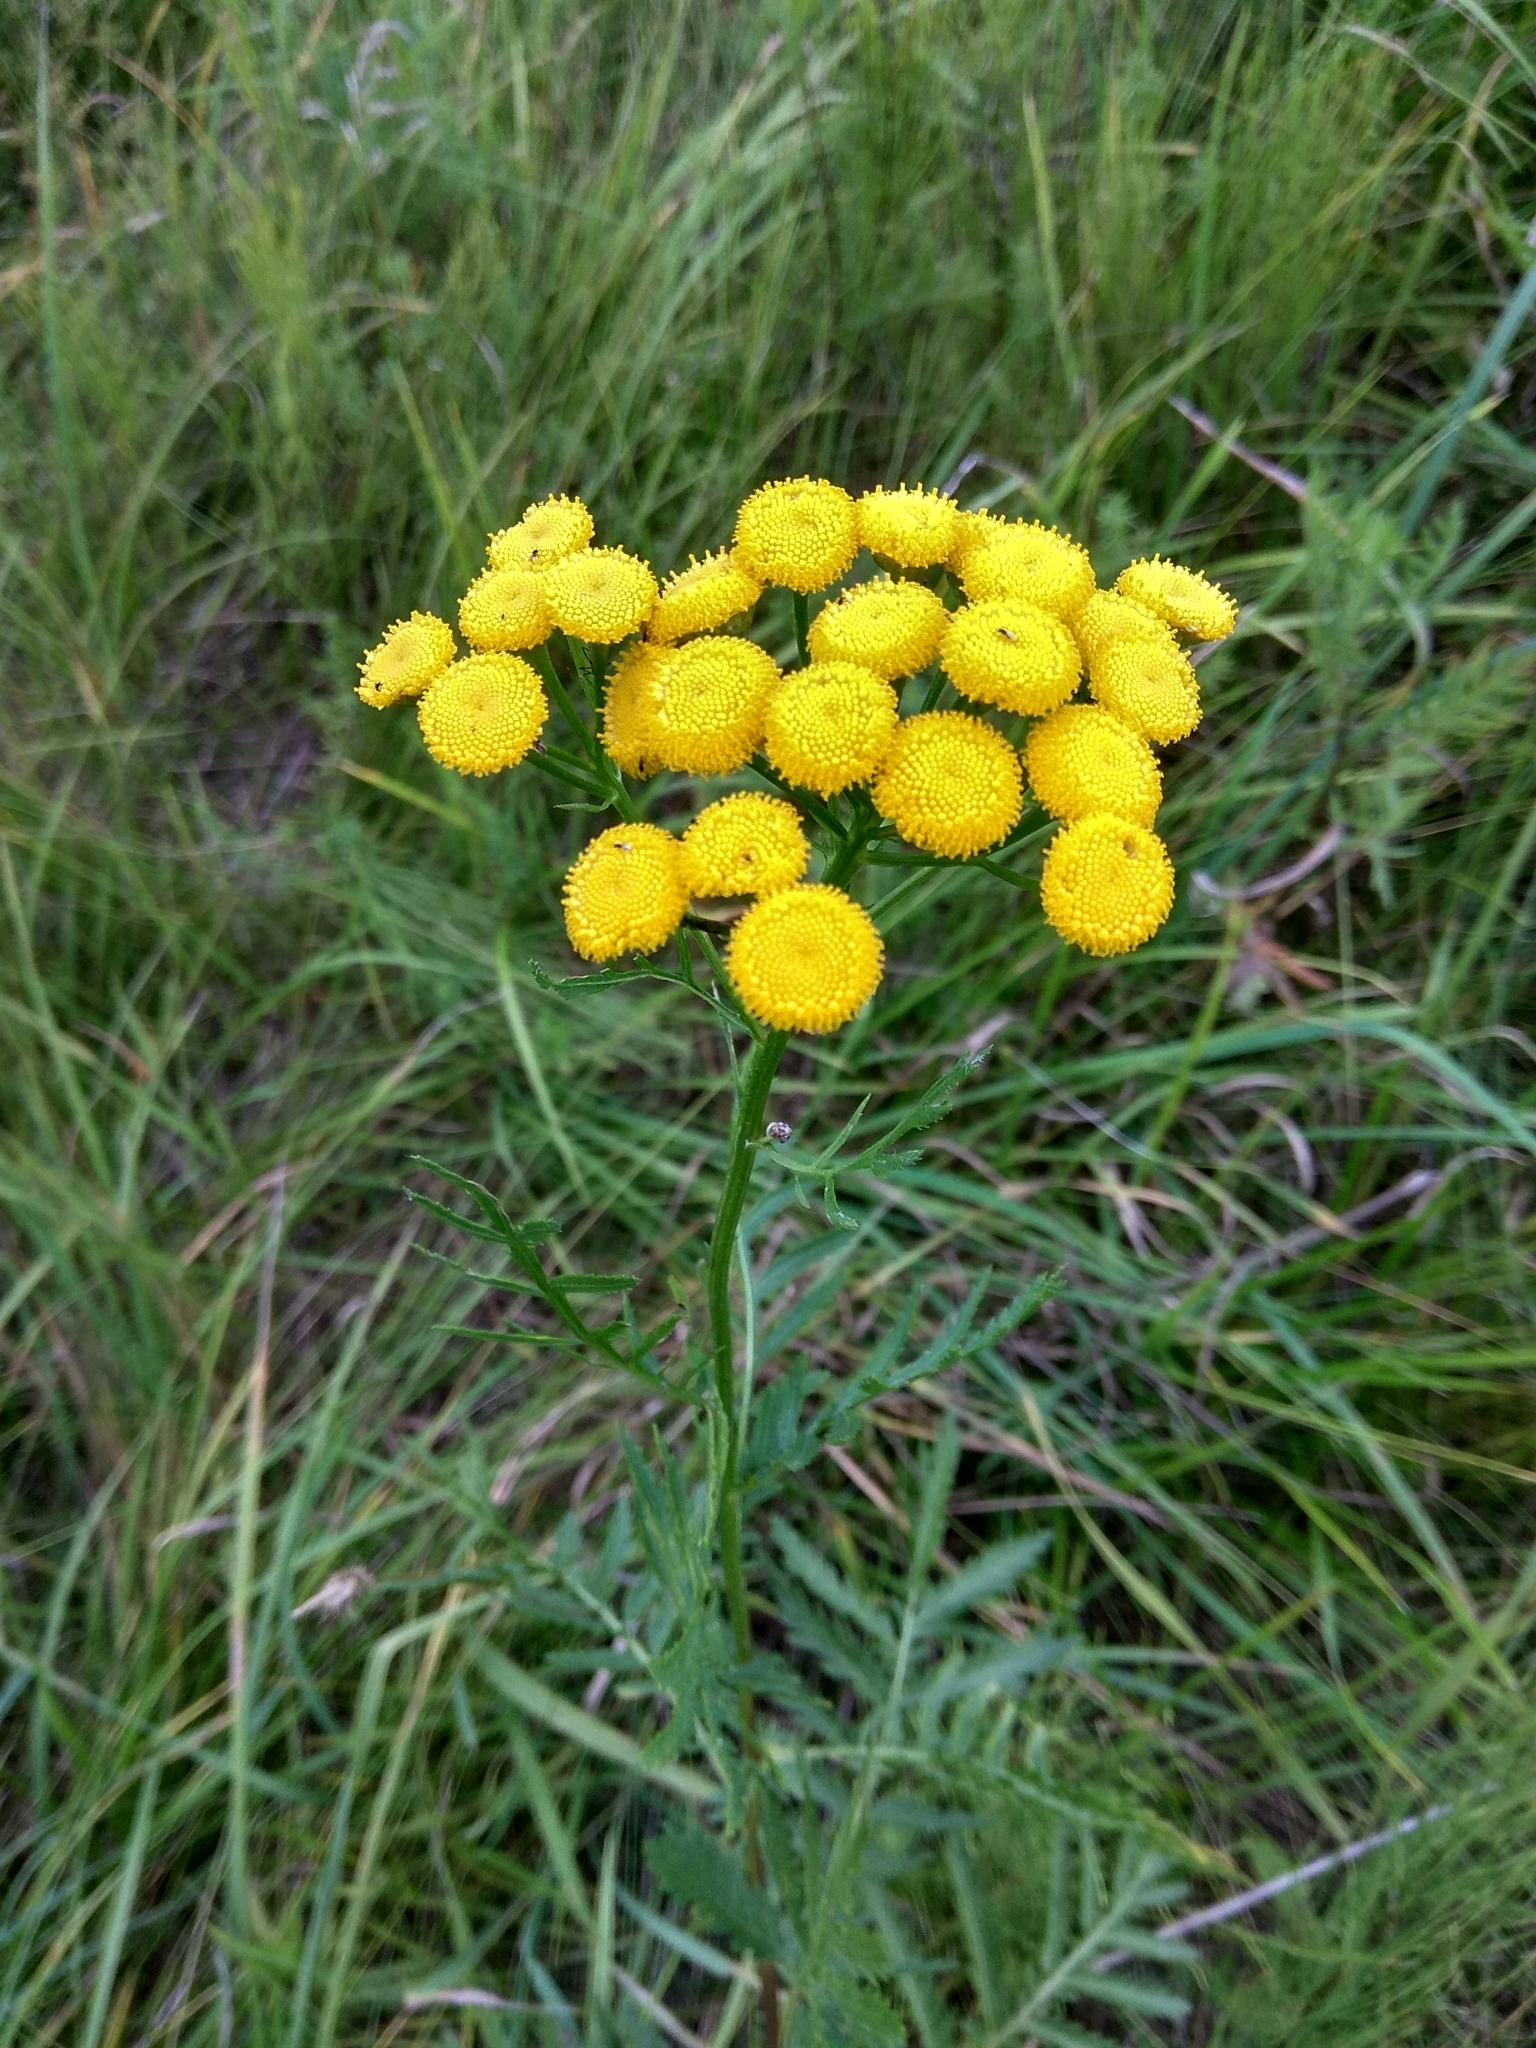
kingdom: Plantae
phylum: Tracheophyta
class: Magnoliopsida
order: Asterales
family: Asteraceae
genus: Tanacetum
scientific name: Tanacetum vulgare
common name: Common tansy
